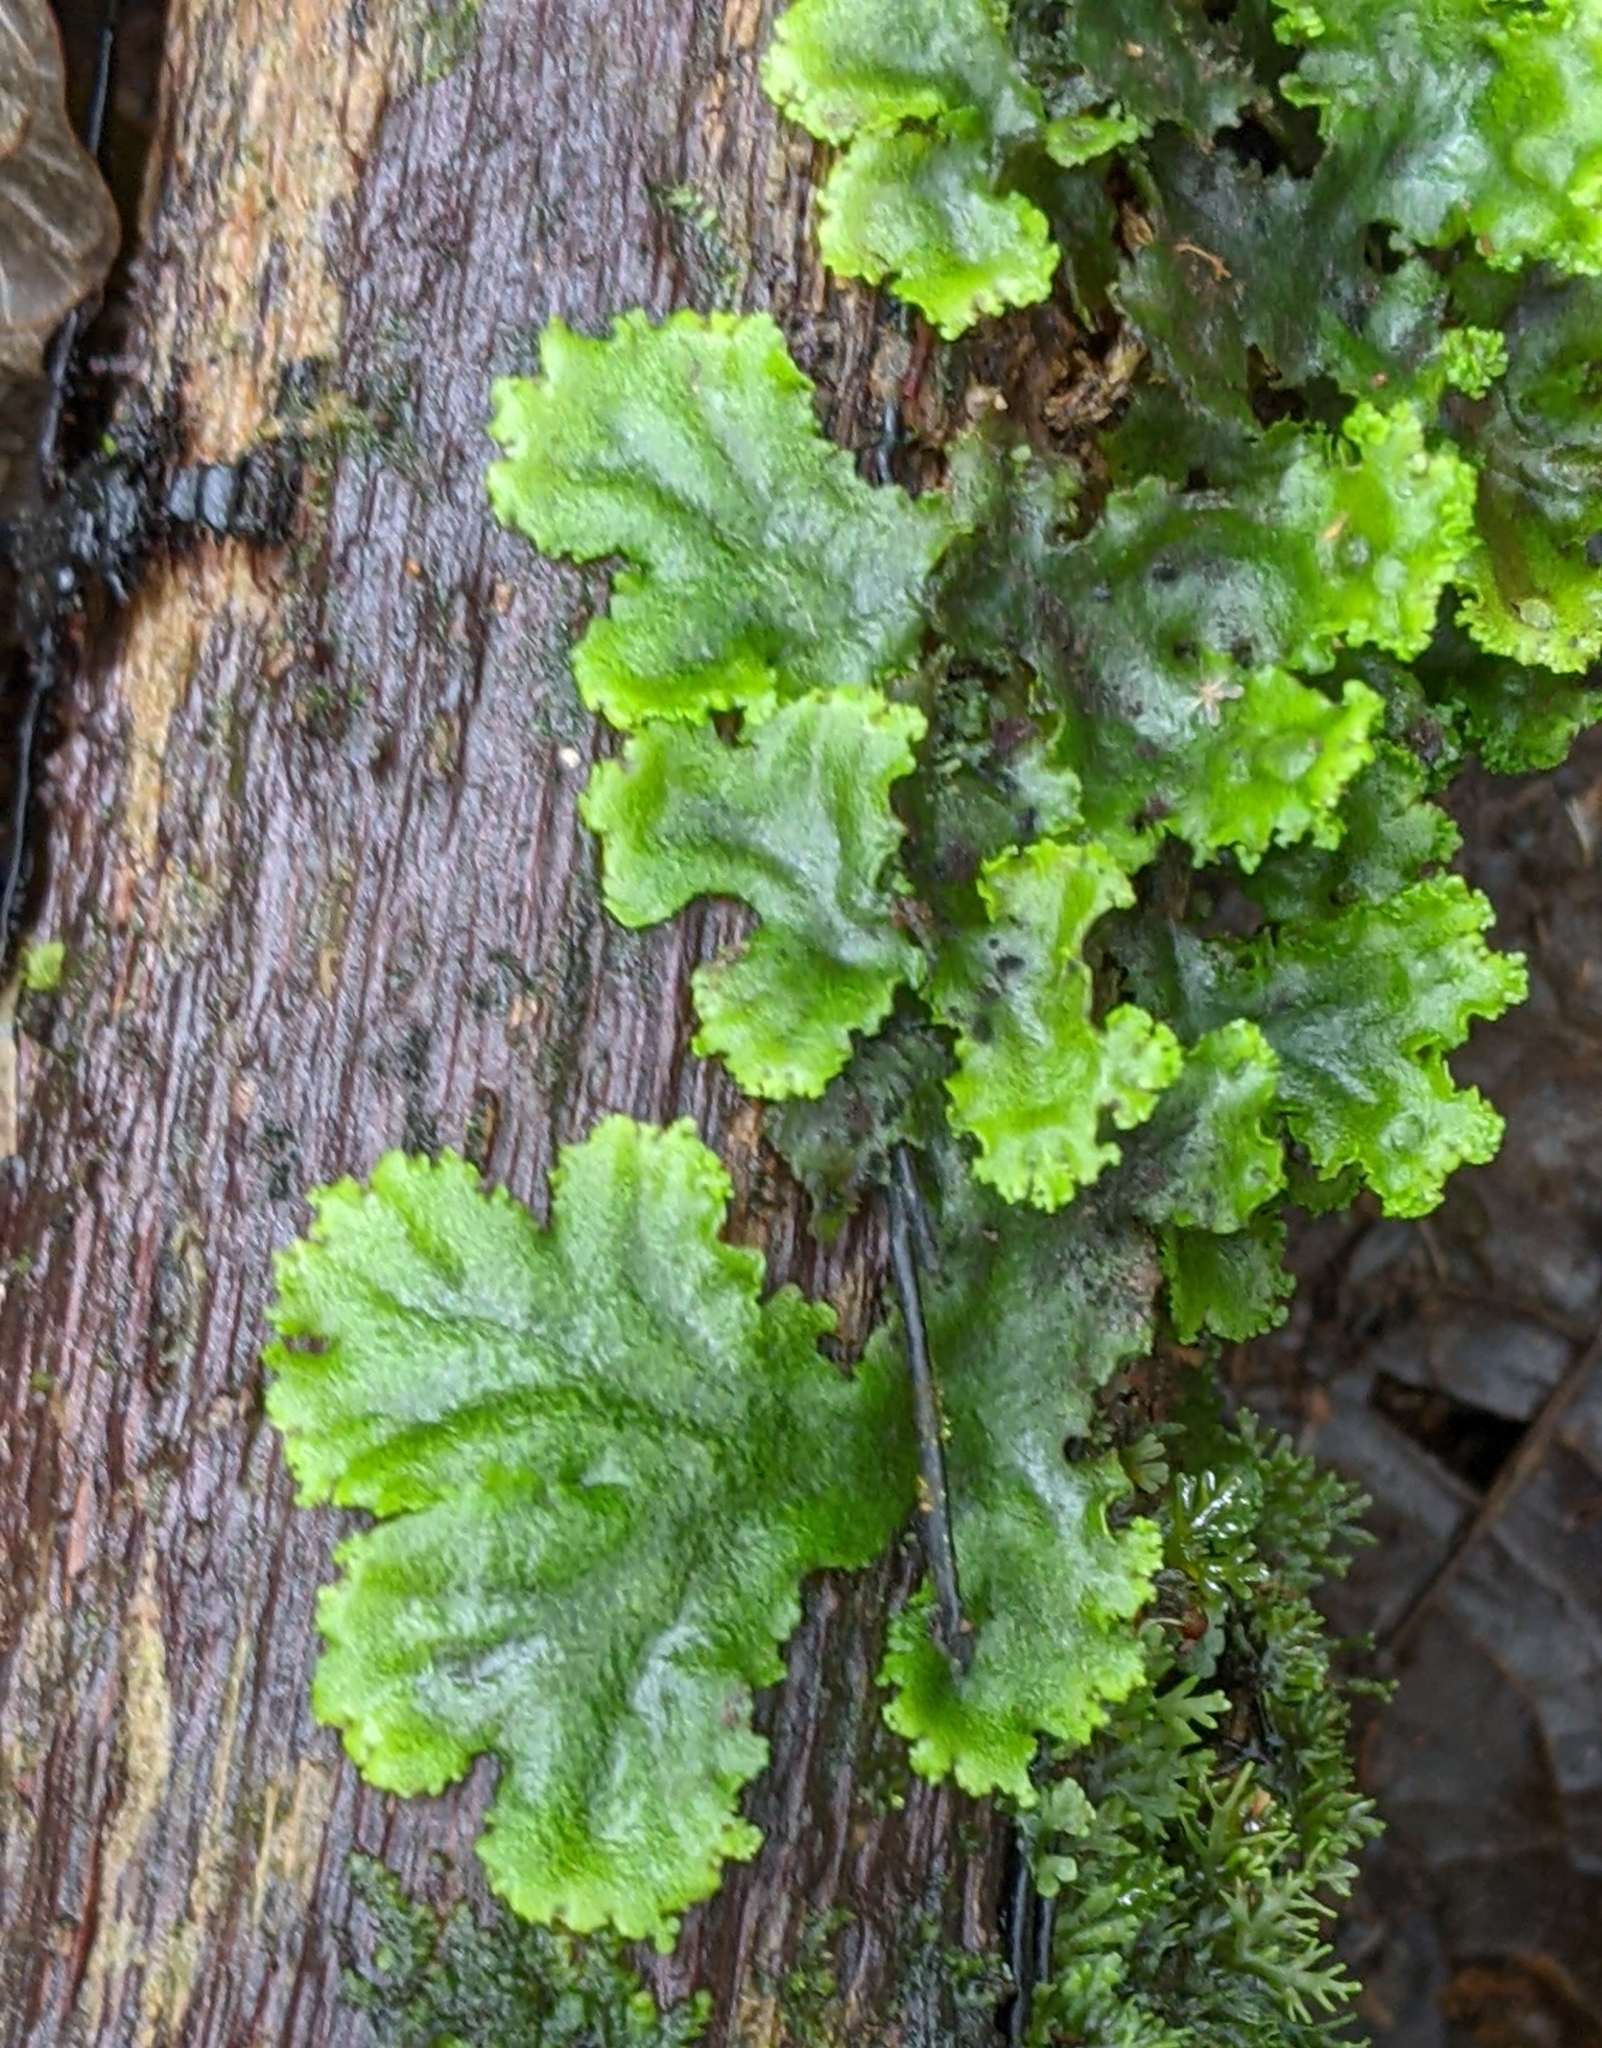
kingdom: Plantae
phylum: Marchantiophyta
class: Marchantiopsida
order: Marchantiales
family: Monocleaceae
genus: Monoclea
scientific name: Monoclea gottschei
